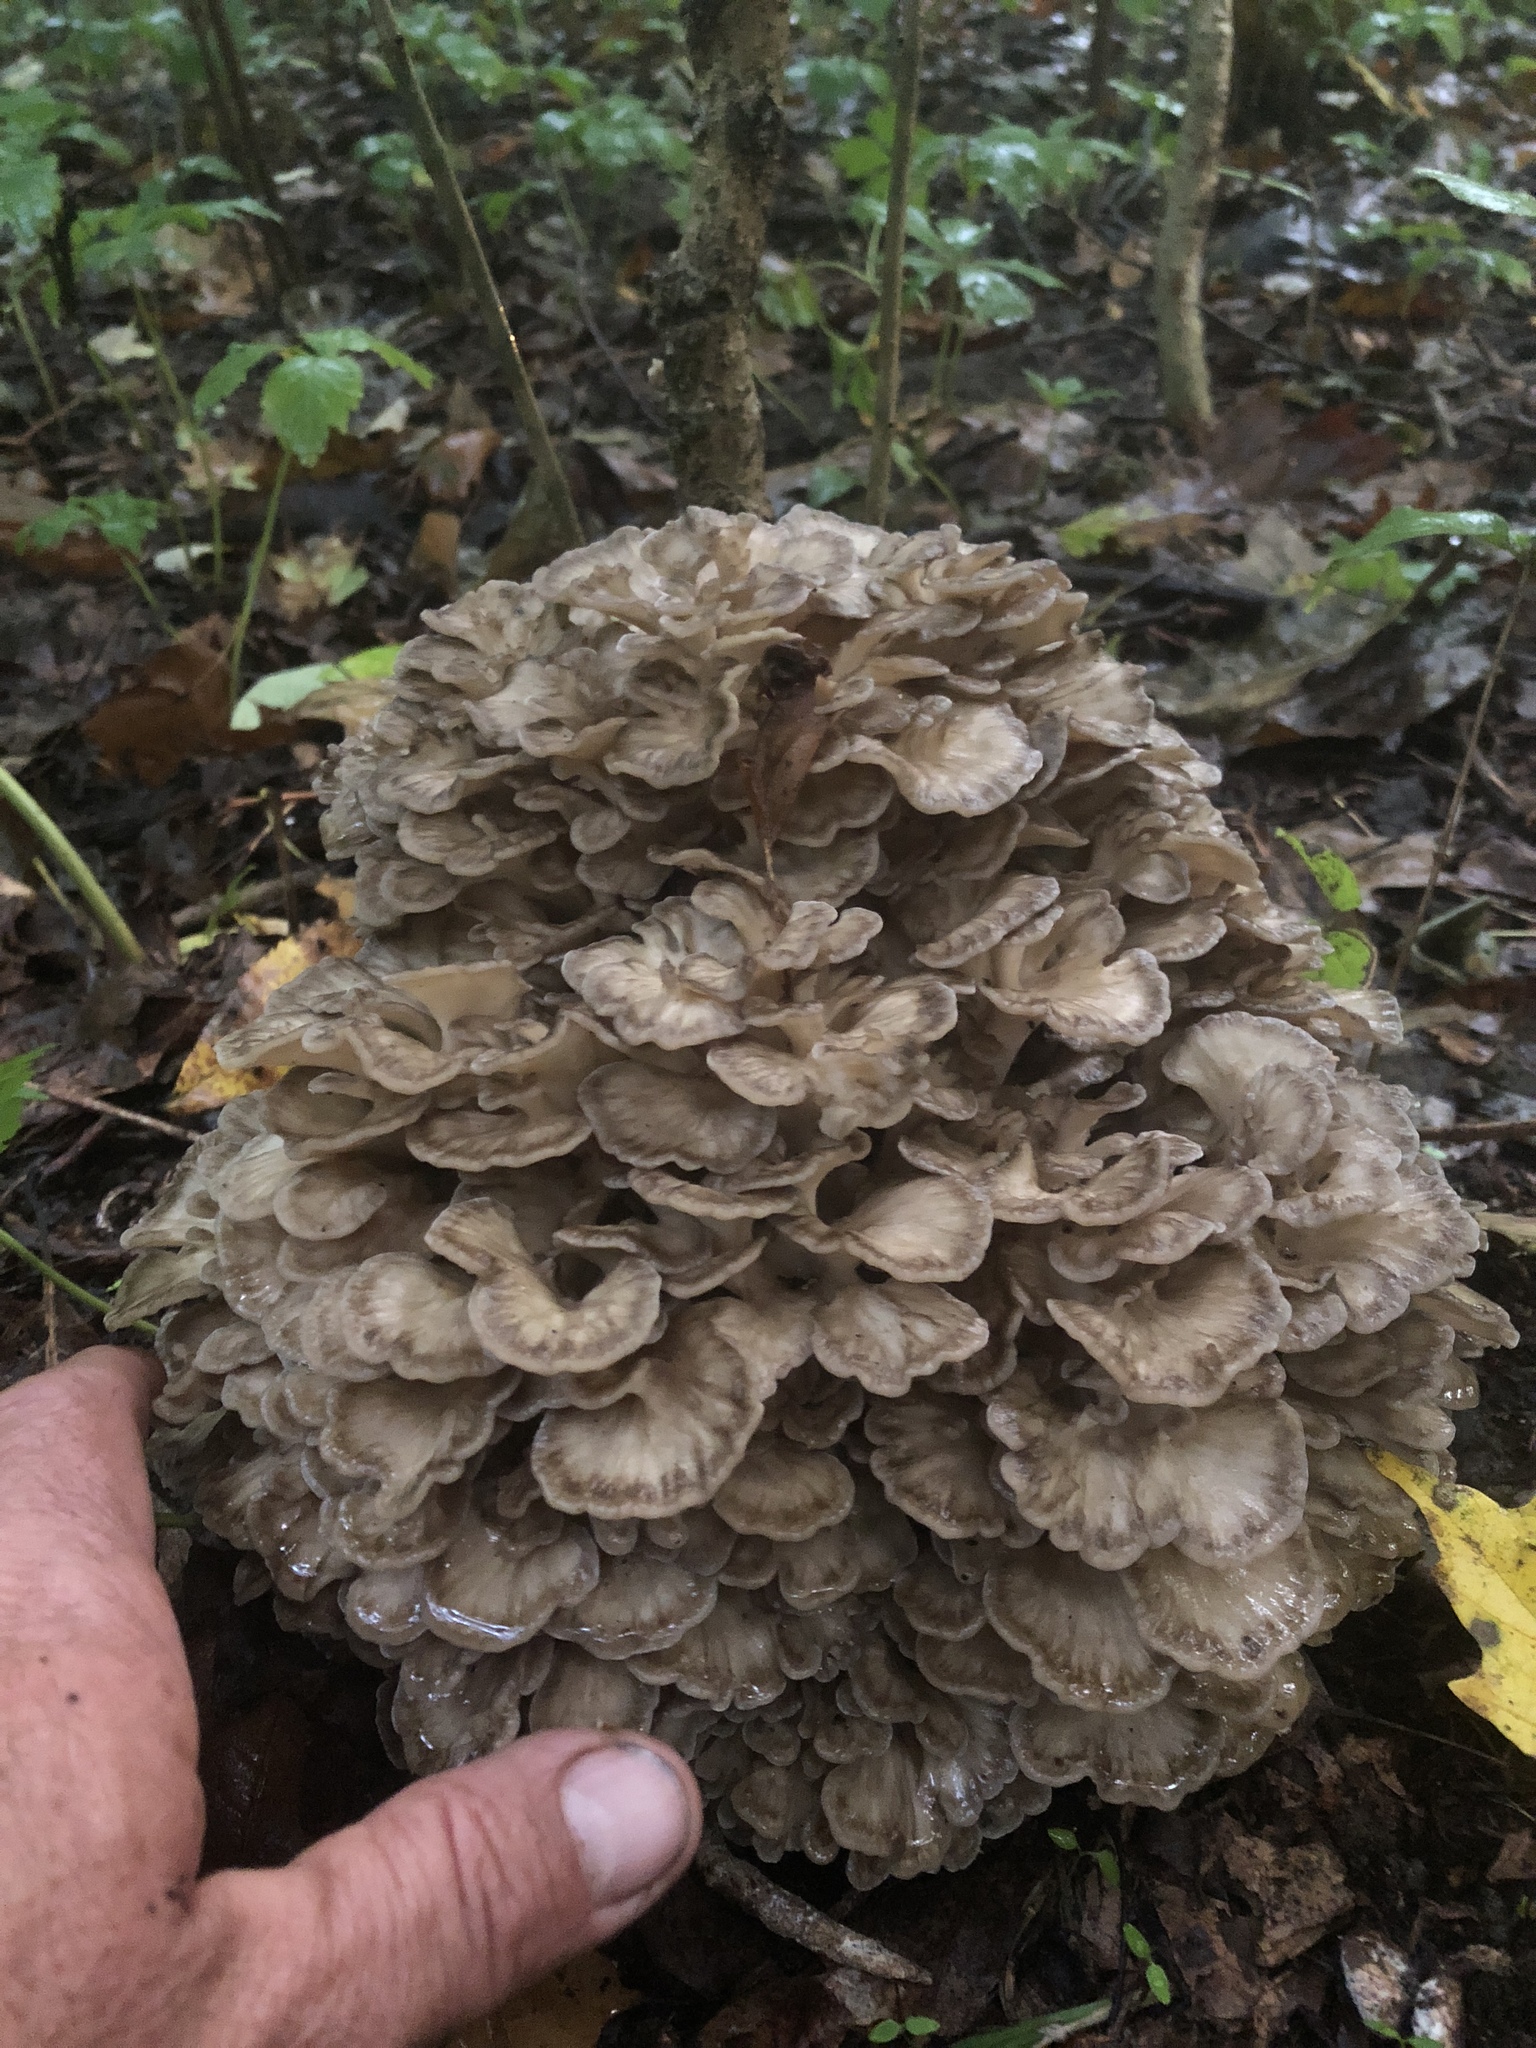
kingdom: Fungi
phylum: Basidiomycota
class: Agaricomycetes
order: Polyporales
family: Grifolaceae
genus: Grifola
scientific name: Grifola frondosa
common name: Hen of the woods
